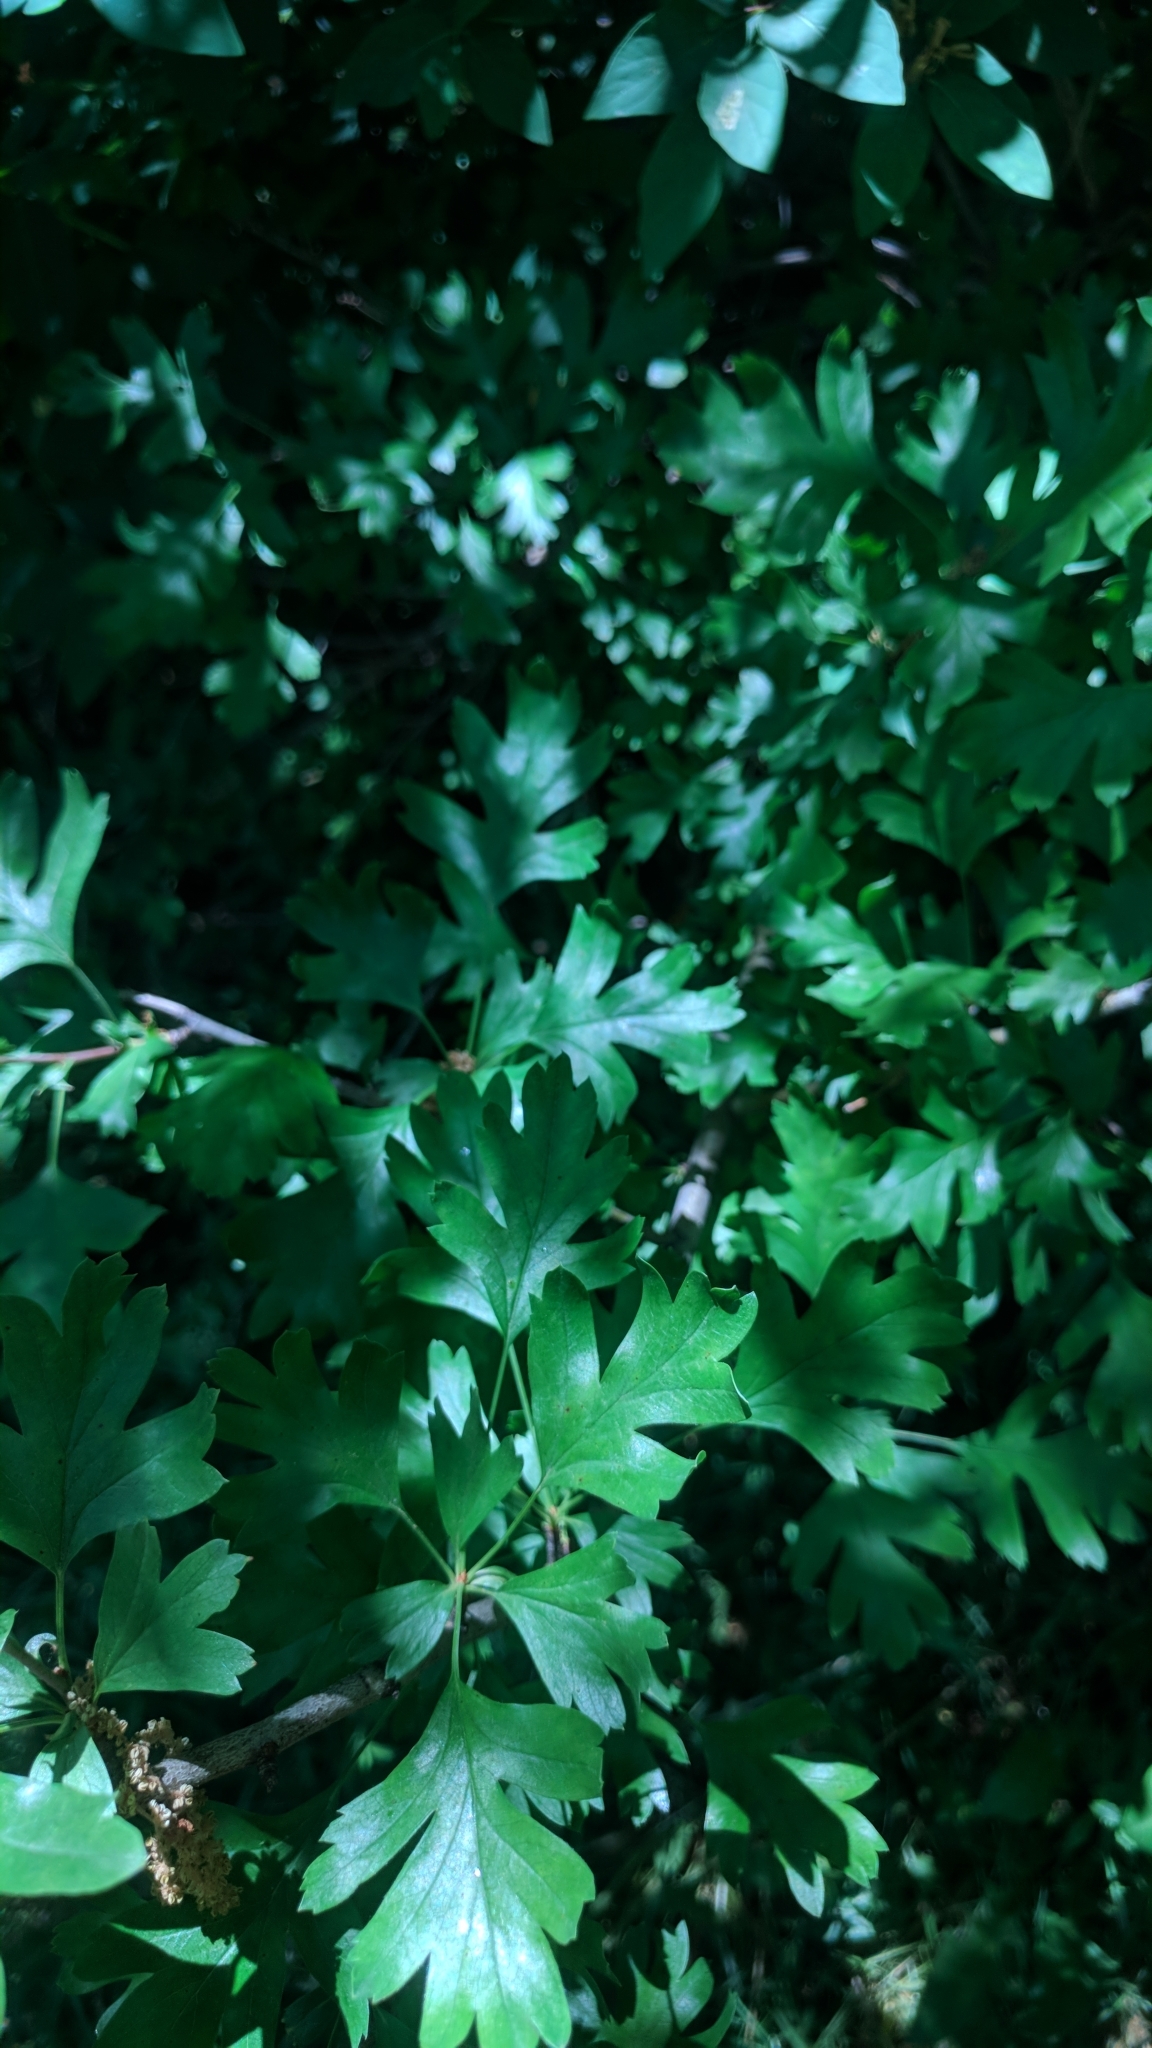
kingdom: Plantae
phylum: Tracheophyta
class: Magnoliopsida
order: Rosales
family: Rosaceae
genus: Crataegus
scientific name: Crataegus monogyna
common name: Hawthorn
